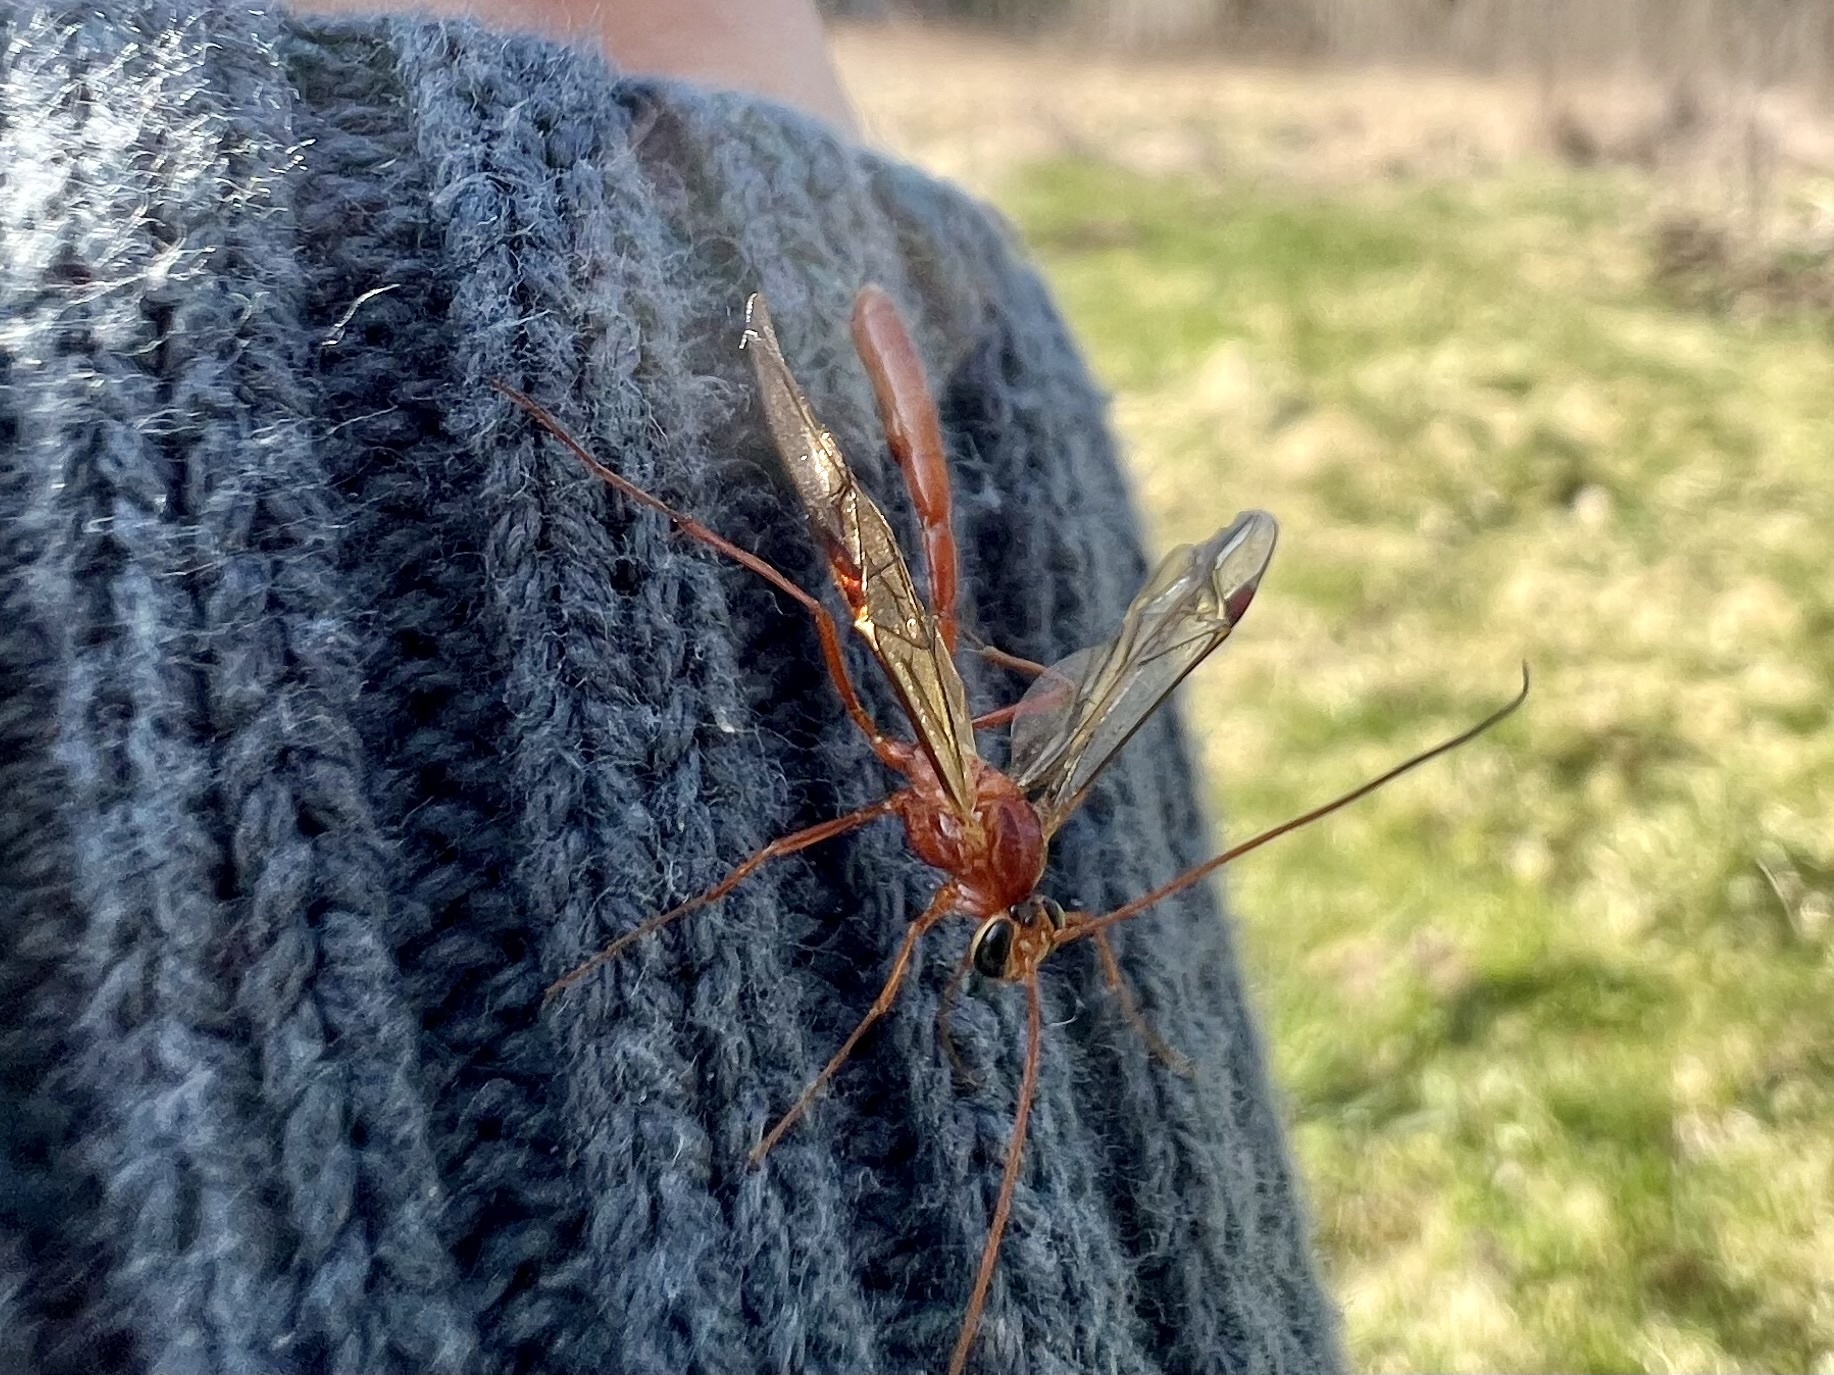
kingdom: Animalia
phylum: Arthropoda
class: Insecta
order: Hymenoptera
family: Ichneumonidae
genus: Ophion
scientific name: Ophion scutellaris
